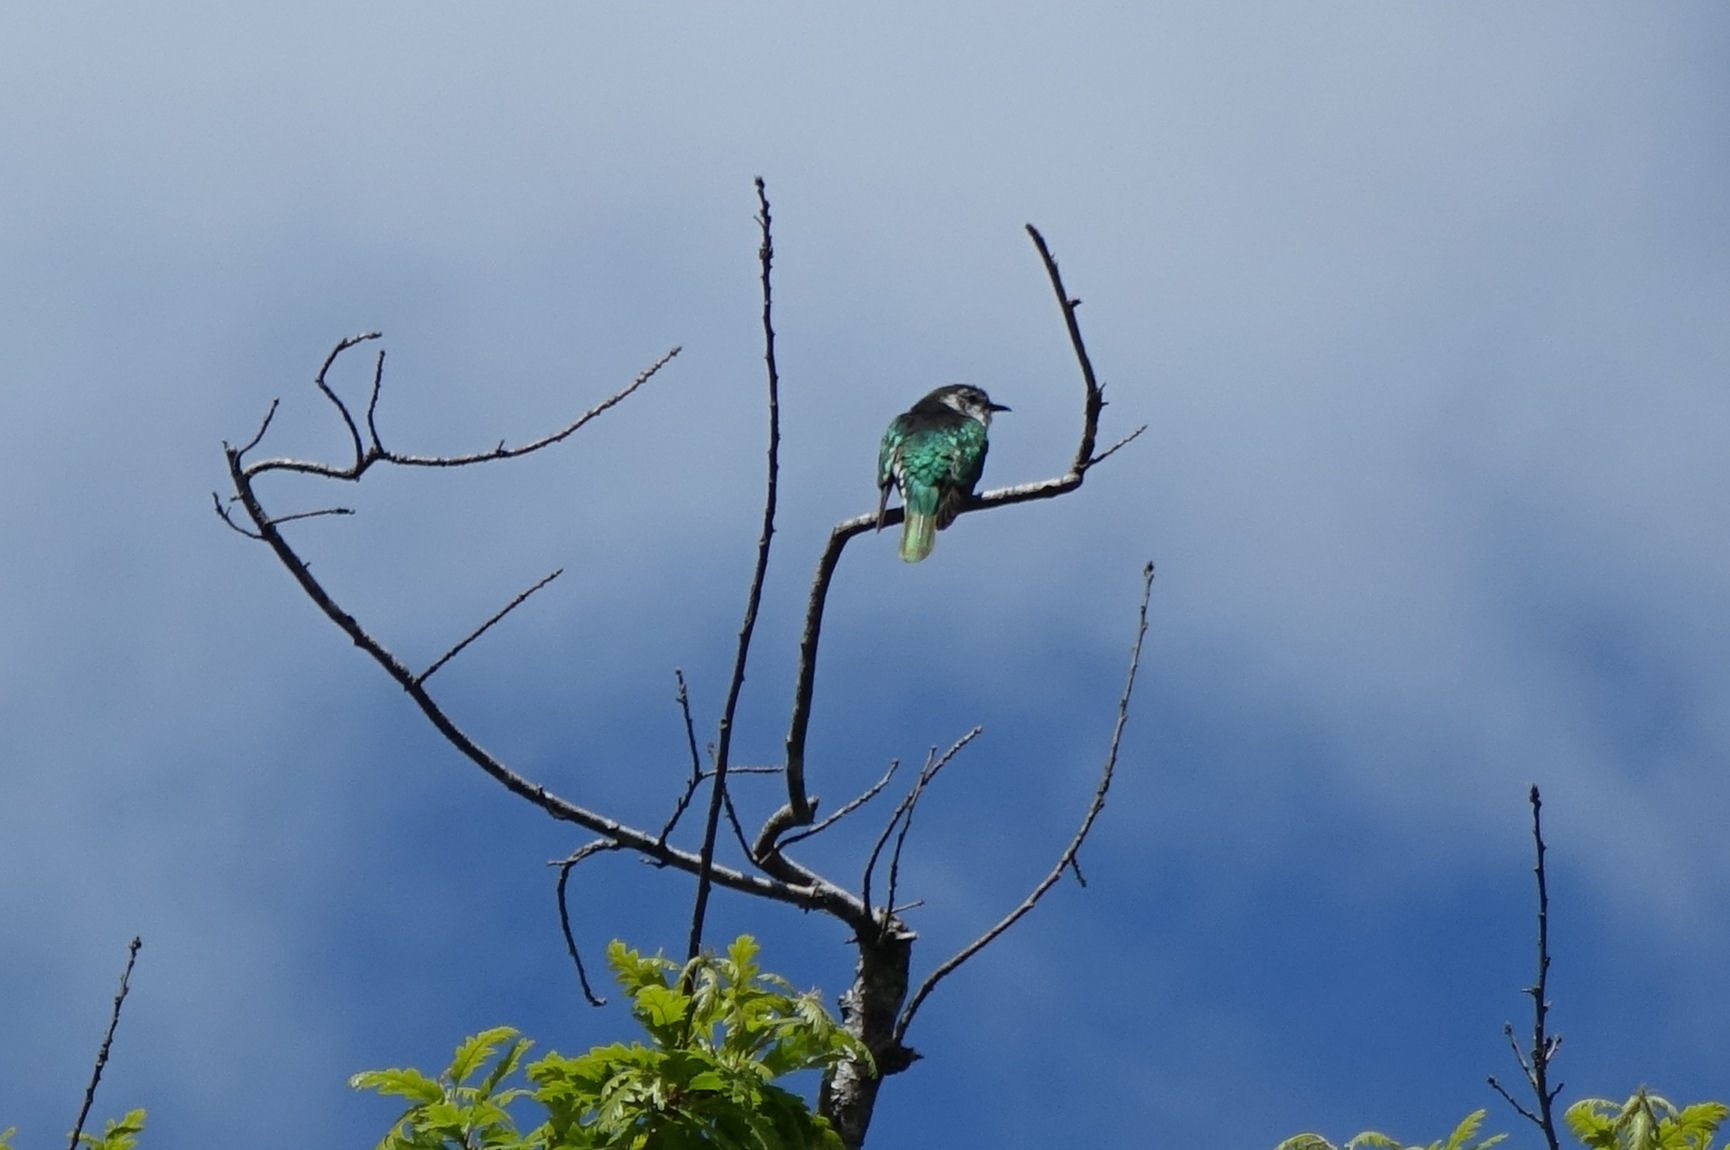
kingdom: Animalia
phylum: Chordata
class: Aves
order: Cuculiformes
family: Cuculidae
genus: Chrysococcyx
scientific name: Chrysococcyx lucidus
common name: Shining bronze cuckoo
